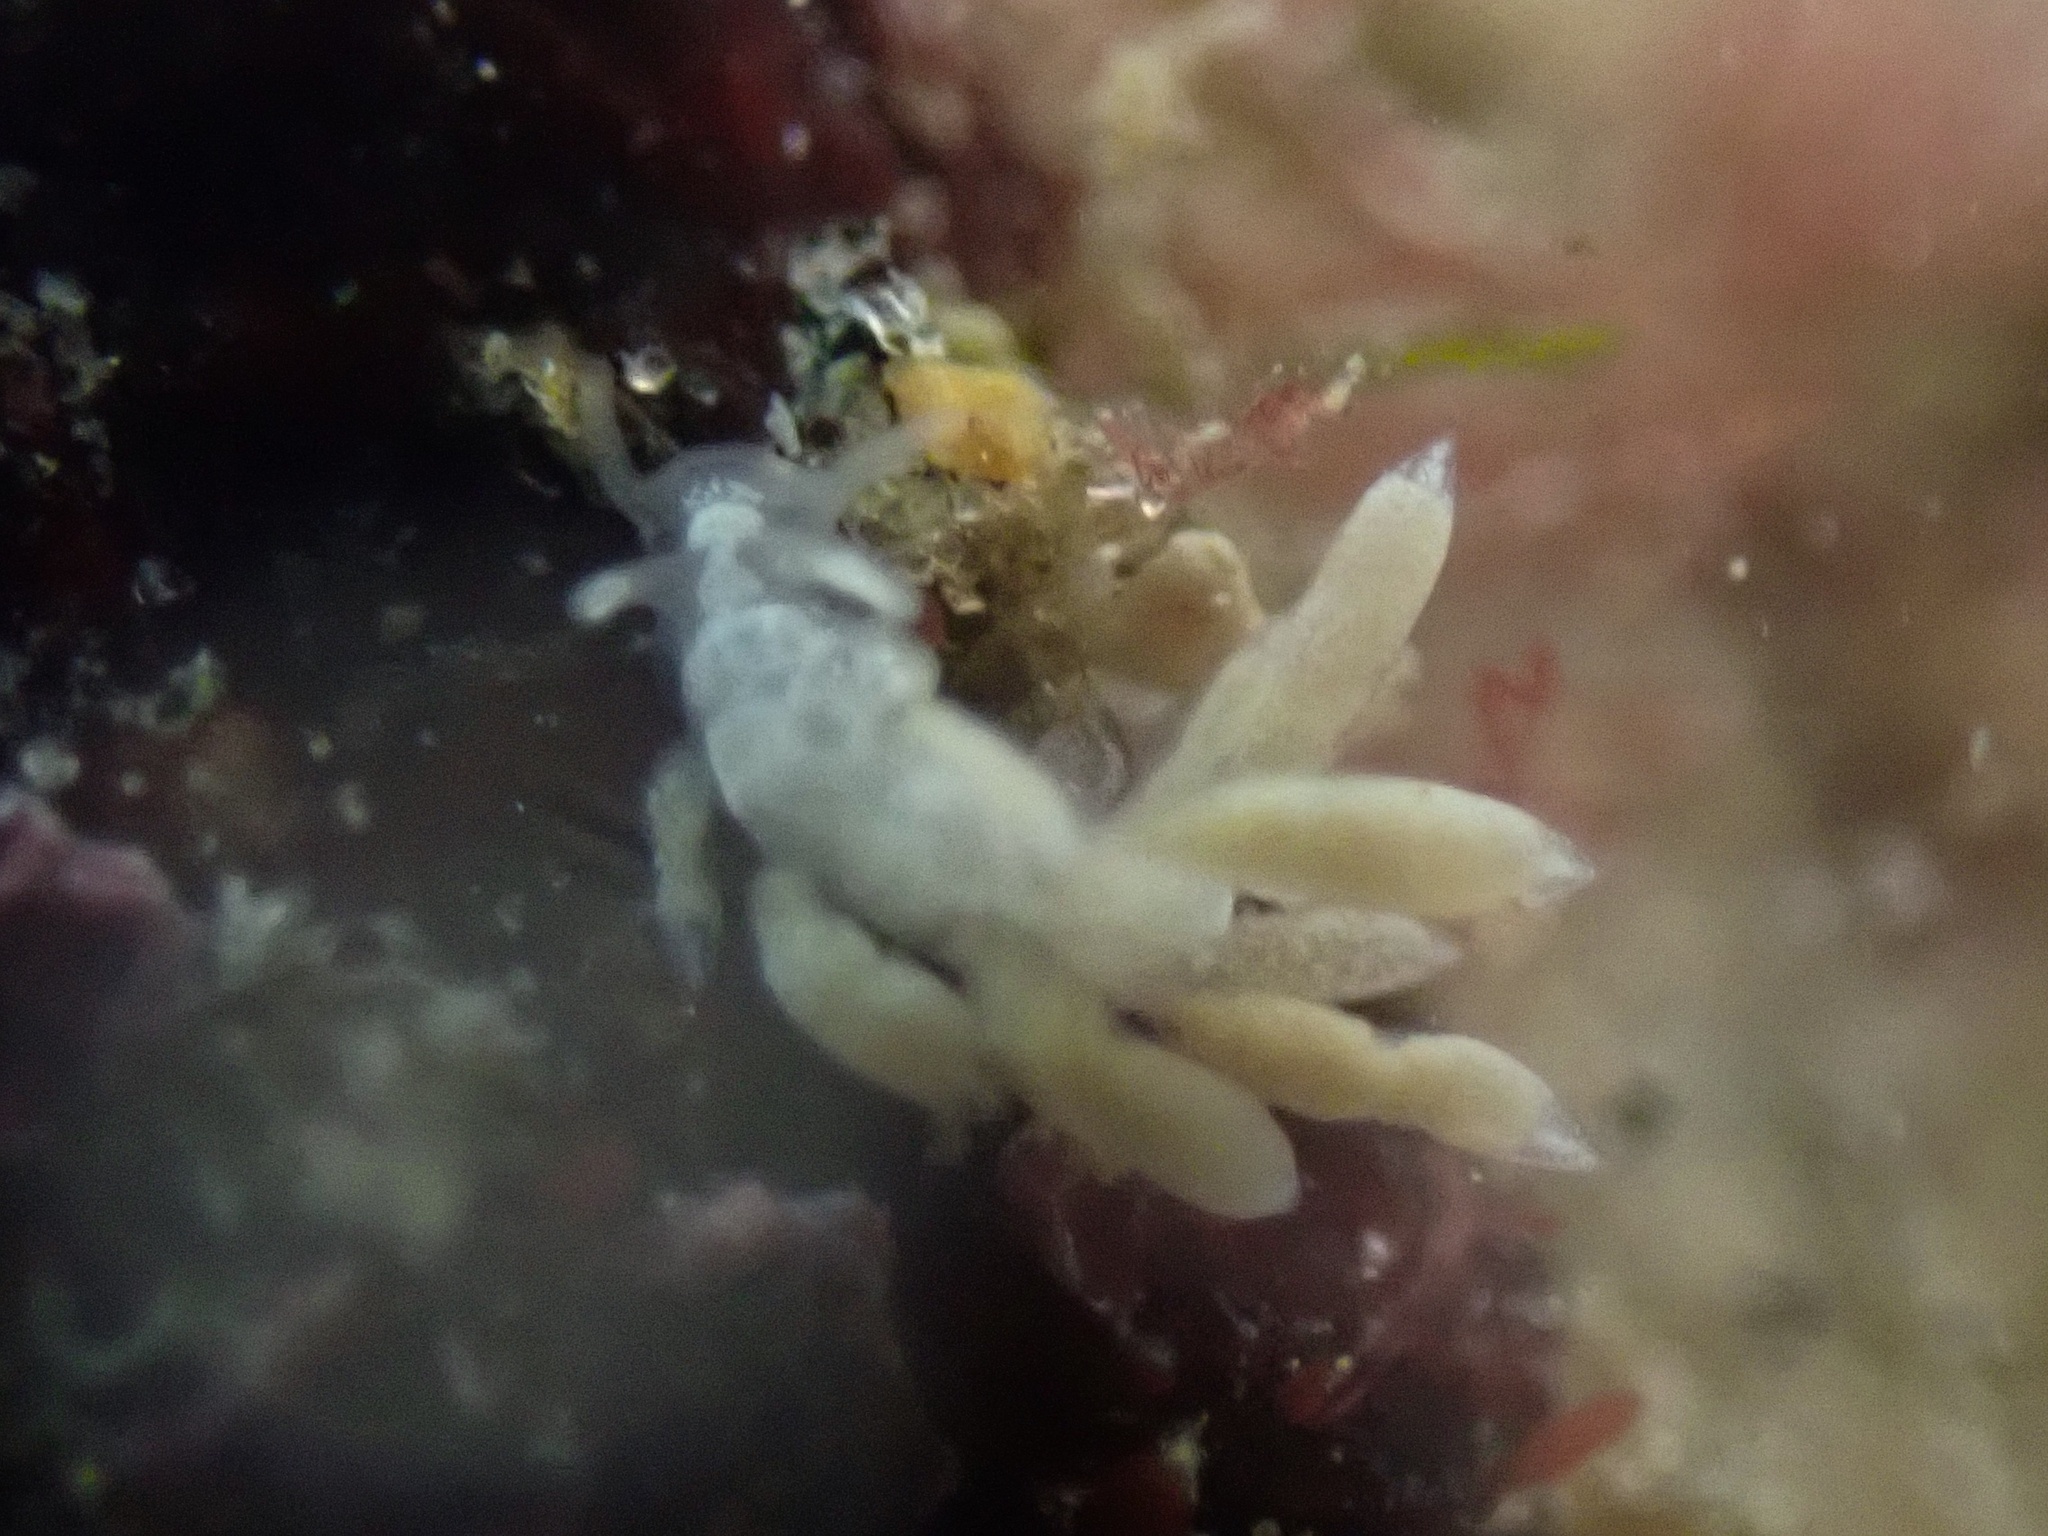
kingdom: Animalia
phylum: Mollusca
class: Gastropoda
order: Nudibranchia
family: Trinchesiidae
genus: Trinchesia
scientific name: Trinchesia albocrusta
